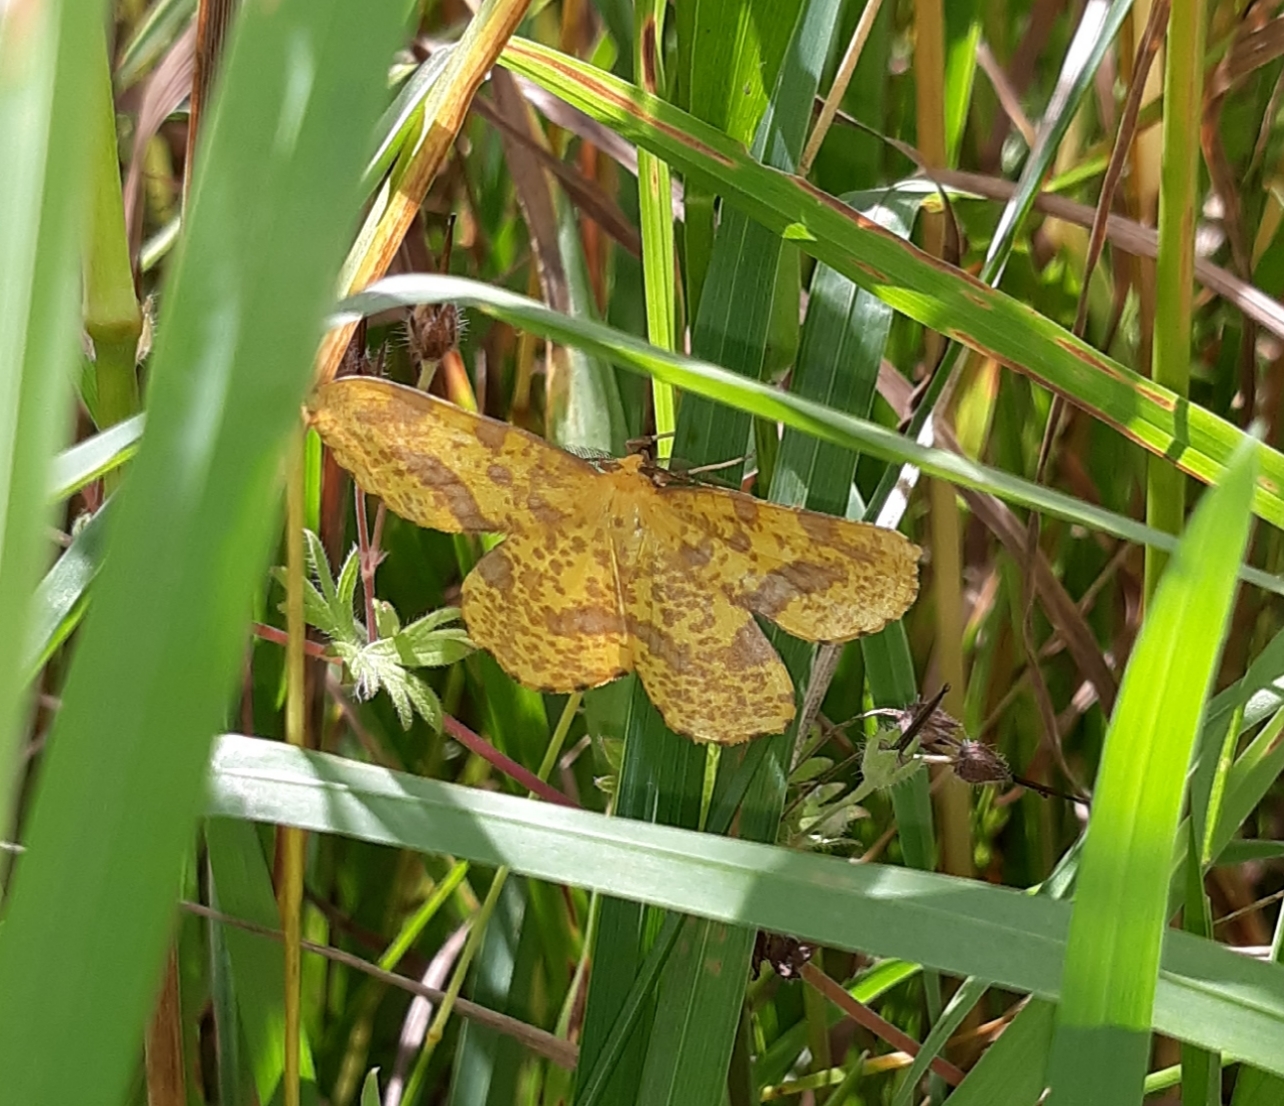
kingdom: Animalia
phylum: Arthropoda
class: Insecta
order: Lepidoptera
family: Geometridae
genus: Xanthotype
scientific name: Xanthotype
